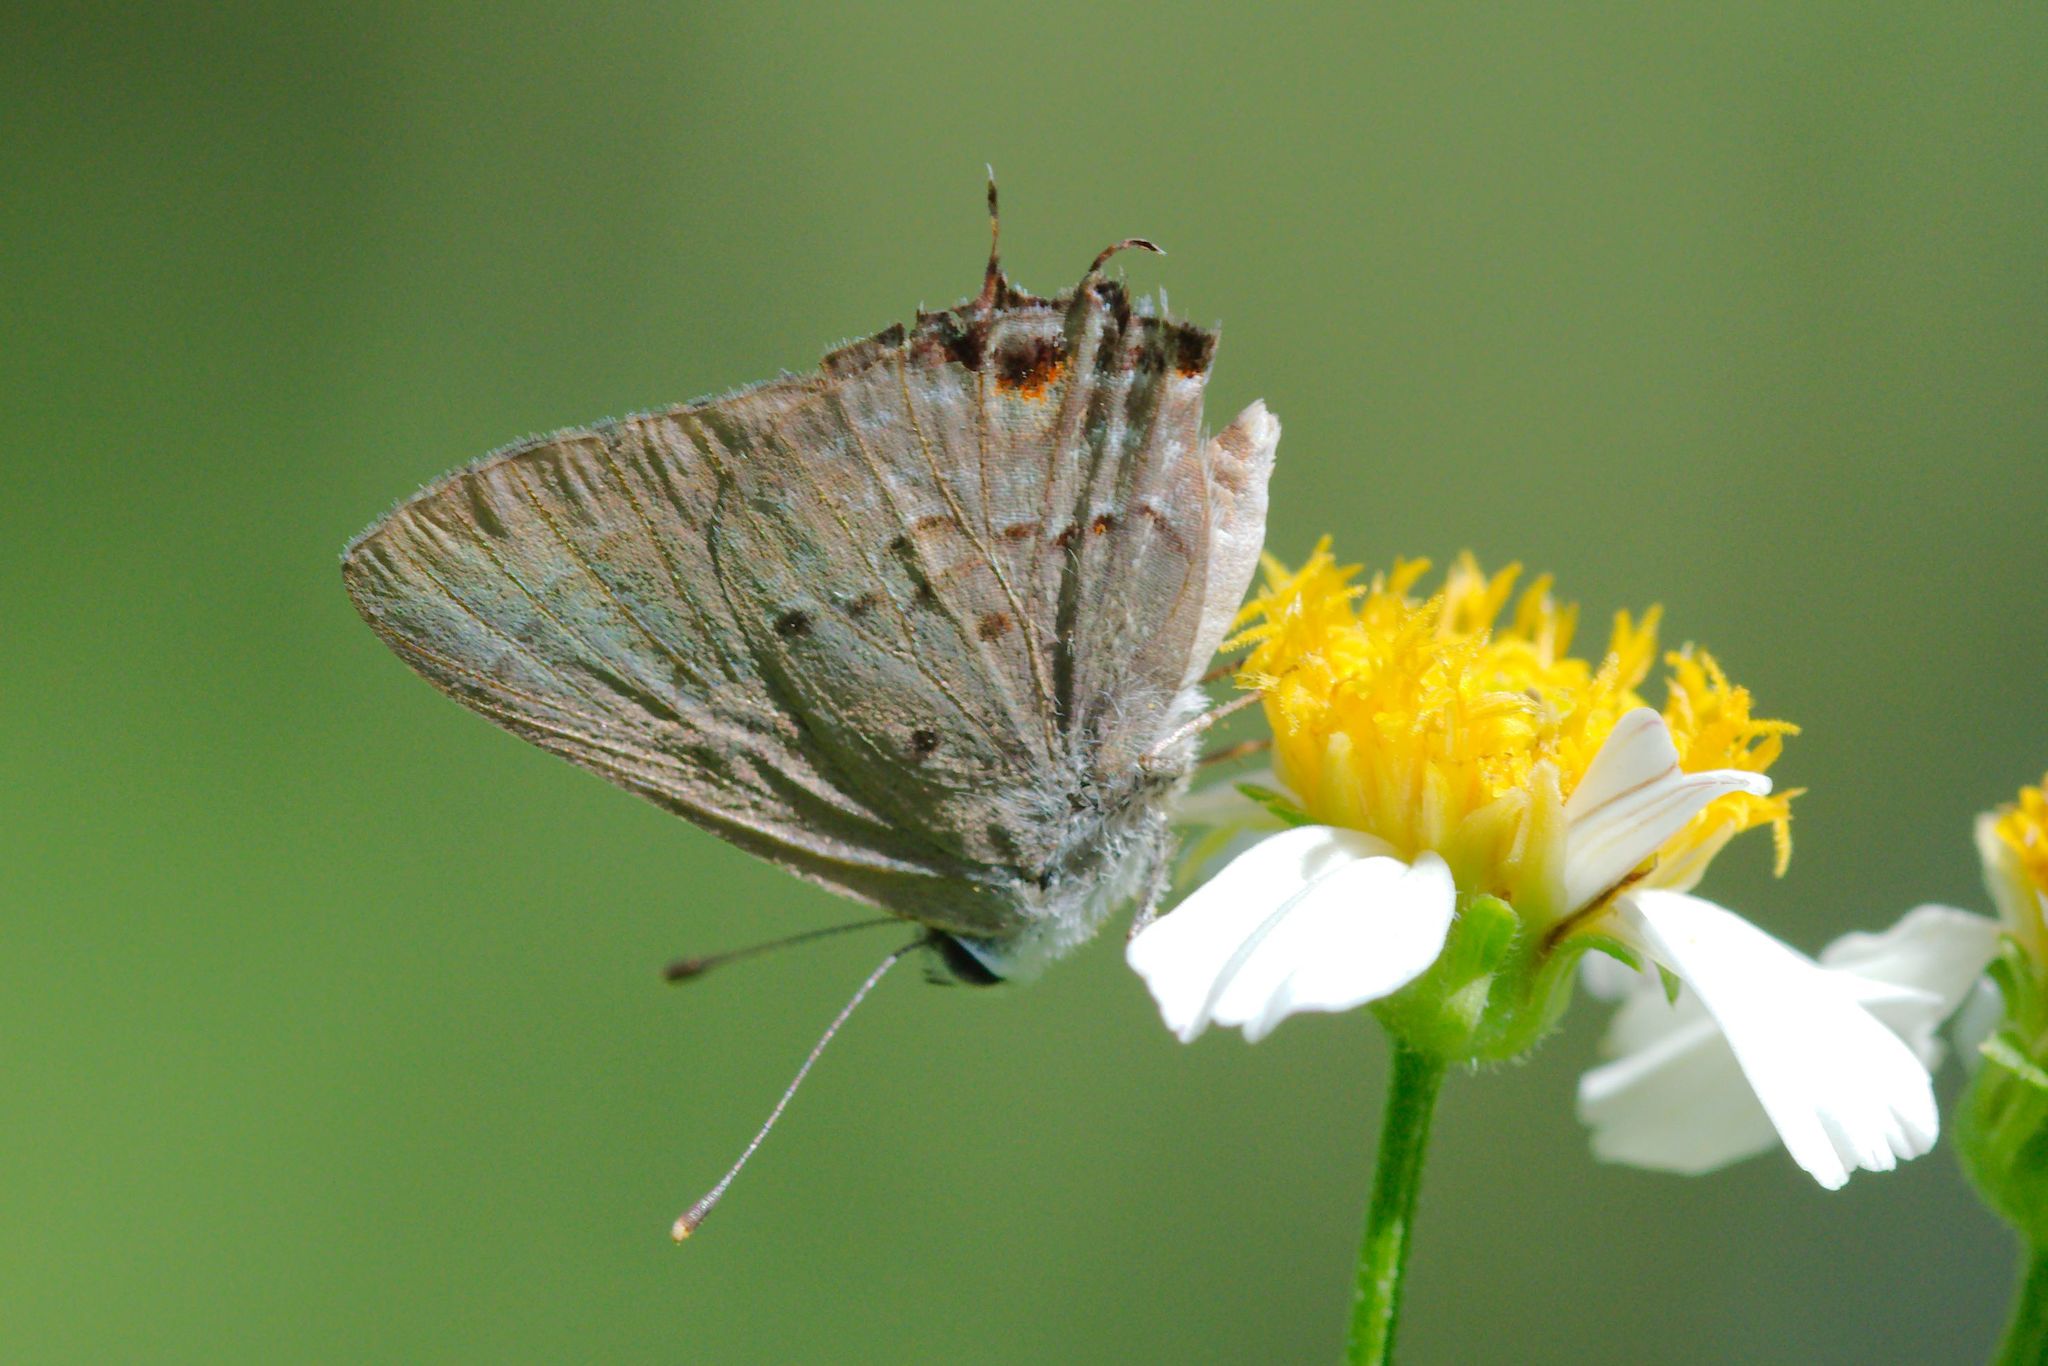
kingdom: Animalia
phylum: Arthropoda
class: Insecta
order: Lepidoptera
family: Lycaenidae
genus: Callicista
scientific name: Callicista columella
